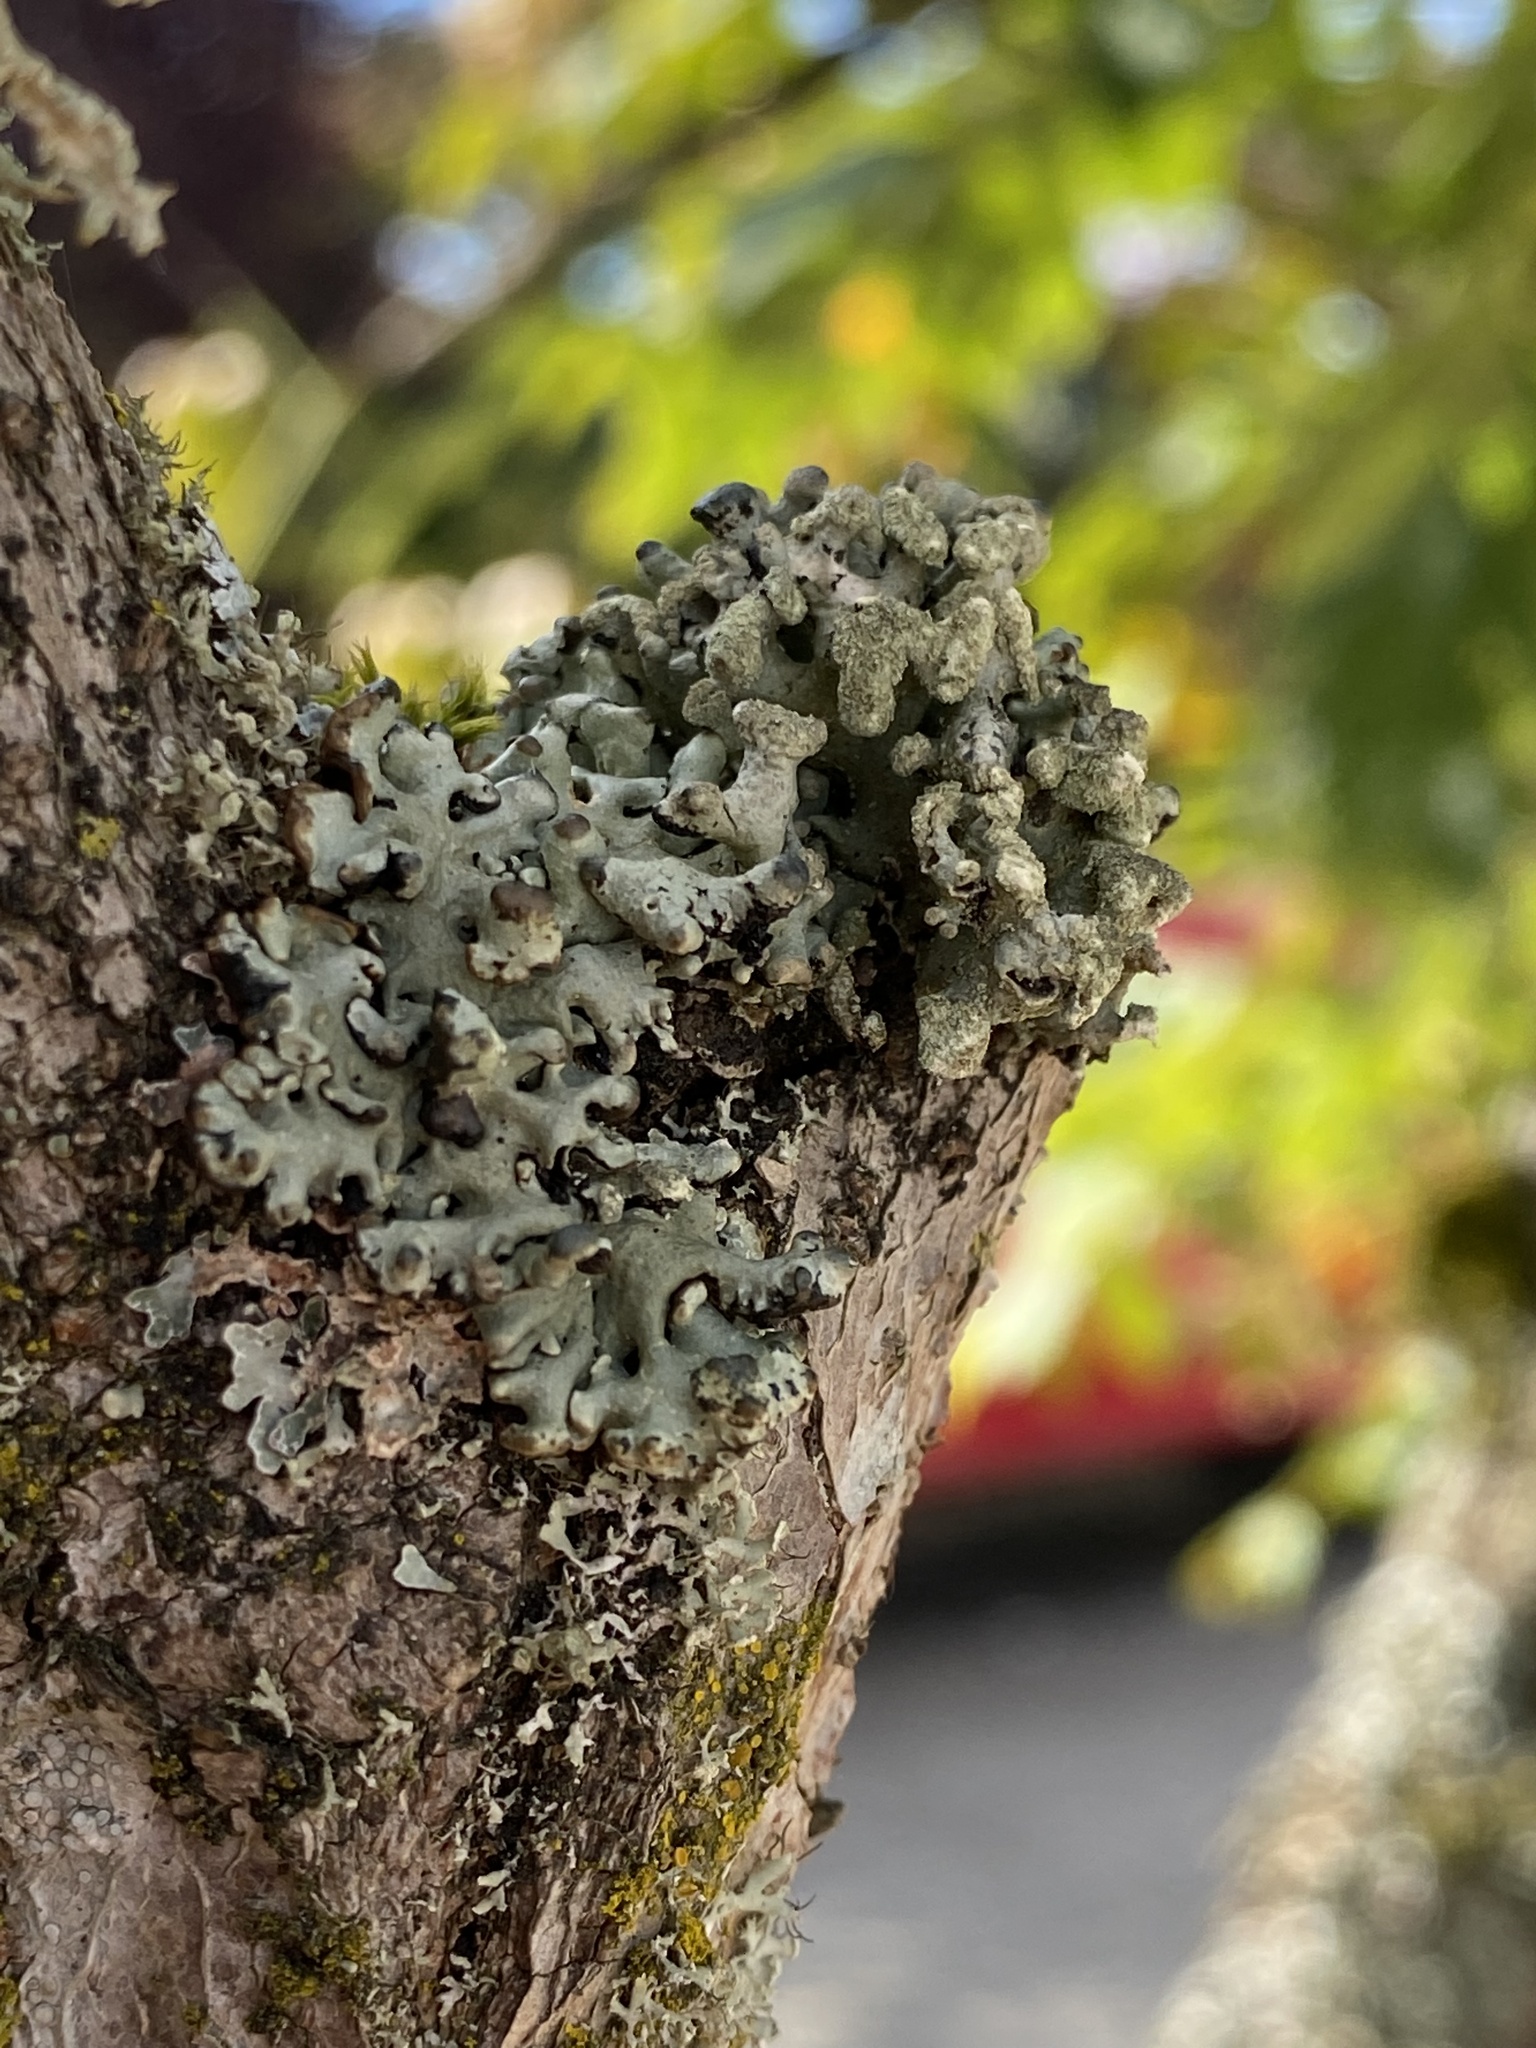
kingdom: Fungi
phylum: Ascomycota
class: Lecanoromycetes
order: Lecanorales
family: Parmeliaceae
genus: Hypogymnia
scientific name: Hypogymnia tubulosa
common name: Powder-headed tube lichen
